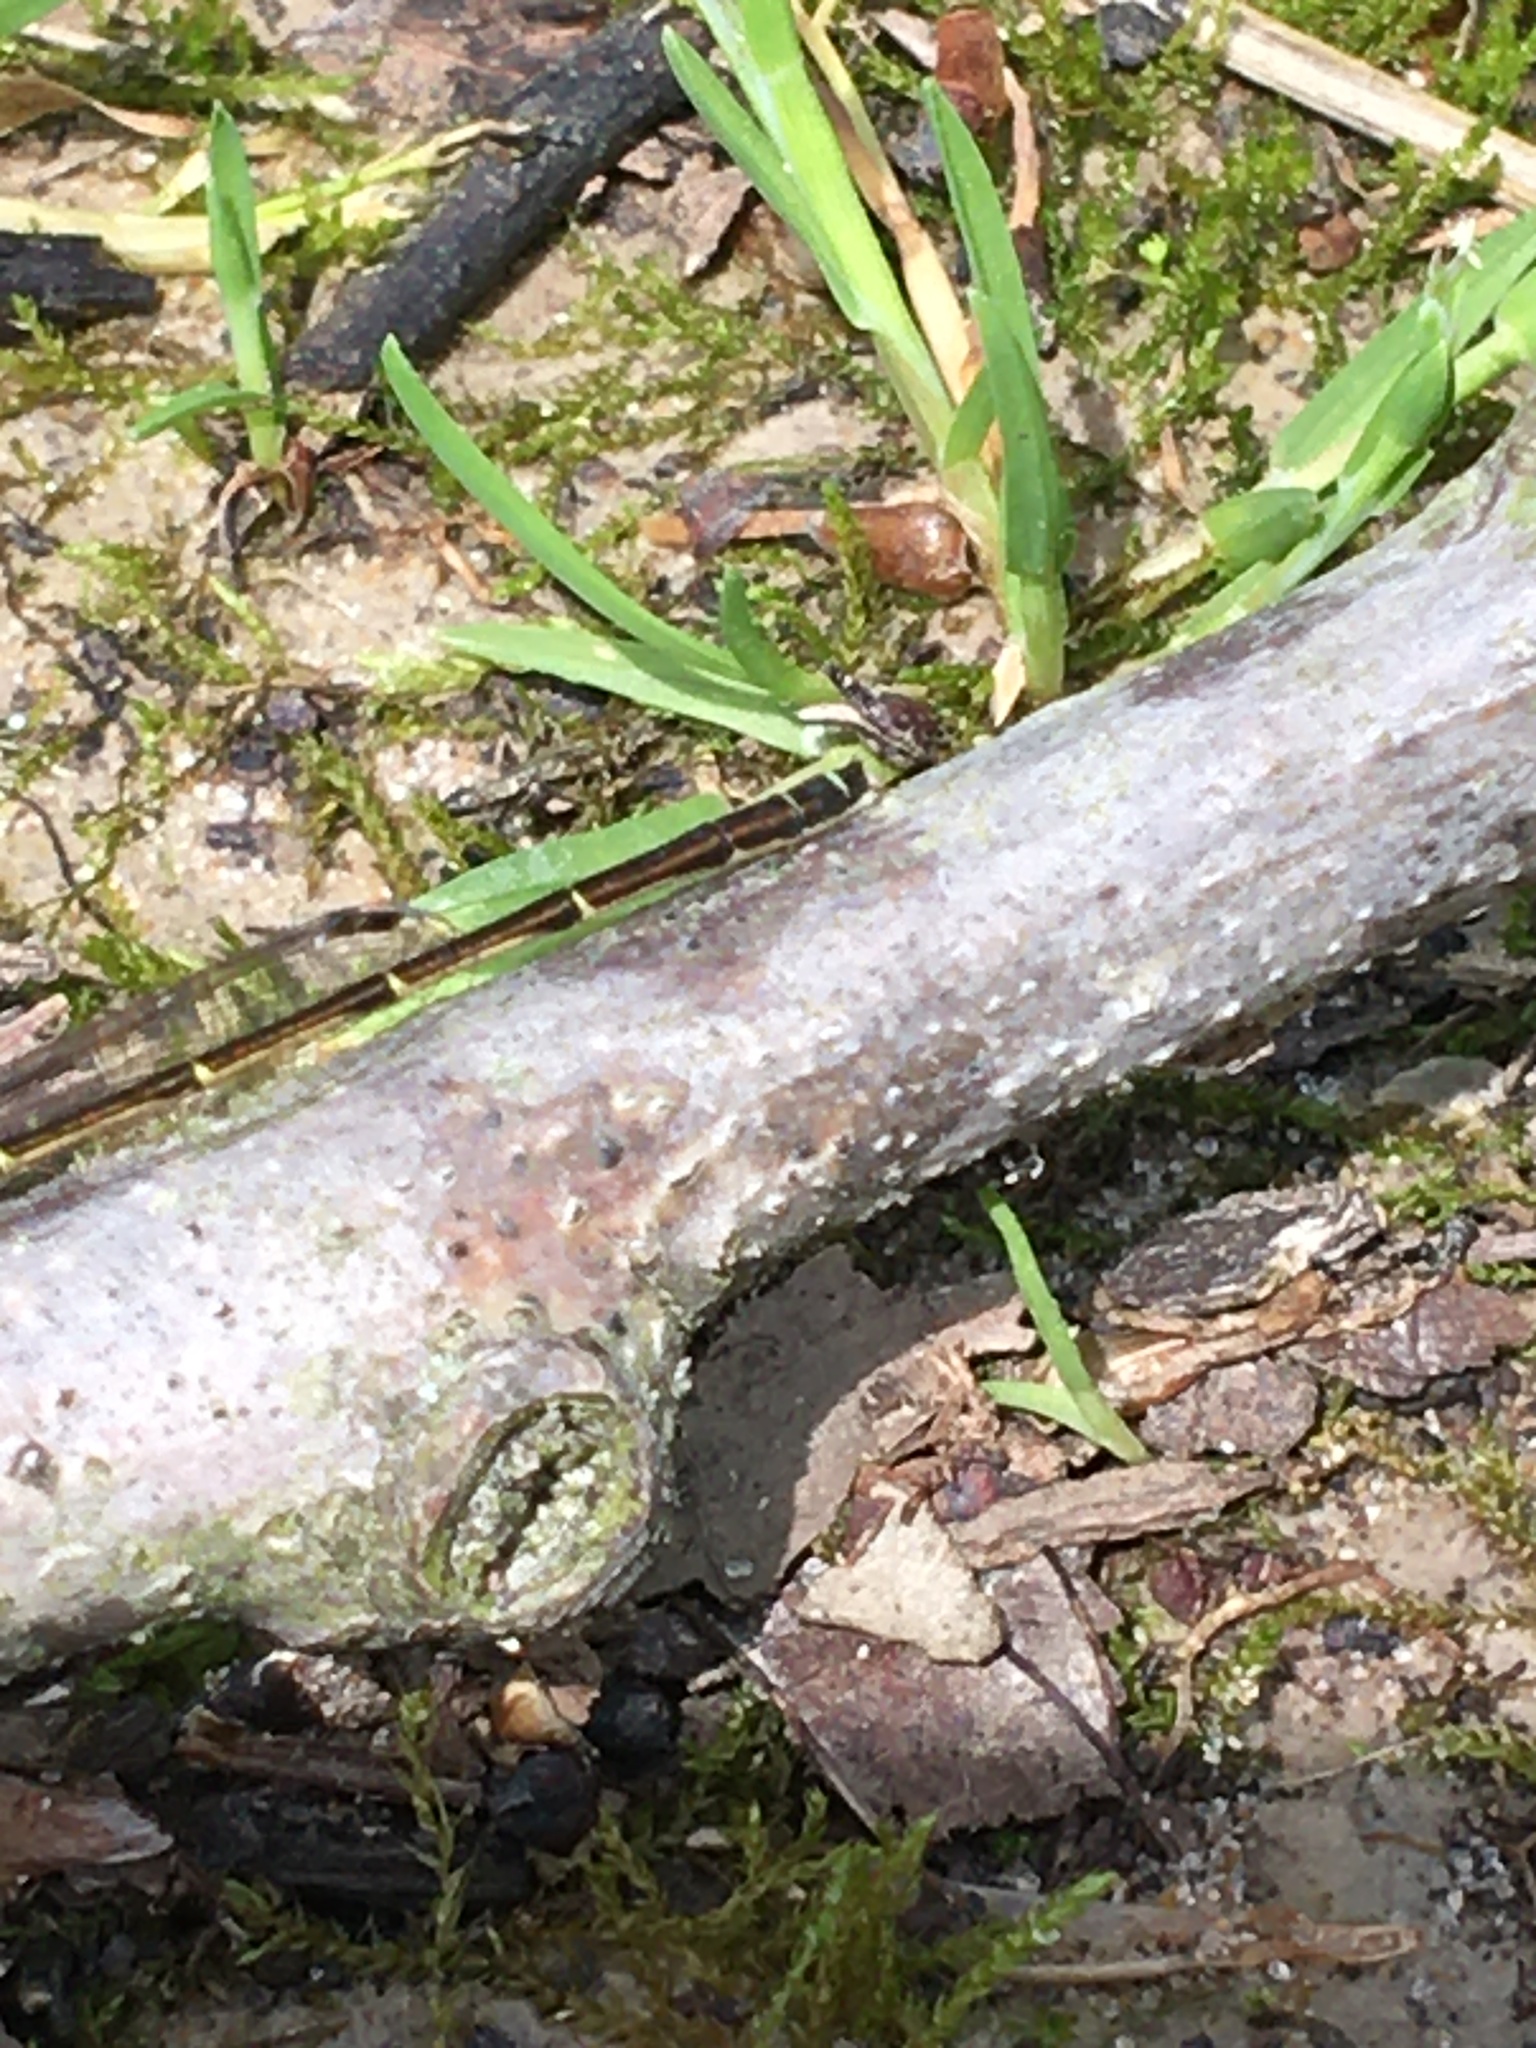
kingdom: Animalia
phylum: Arthropoda
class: Insecta
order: Odonata
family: Coenagrionidae
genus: Ischnura
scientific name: Ischnura posita
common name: Fragile forktail
